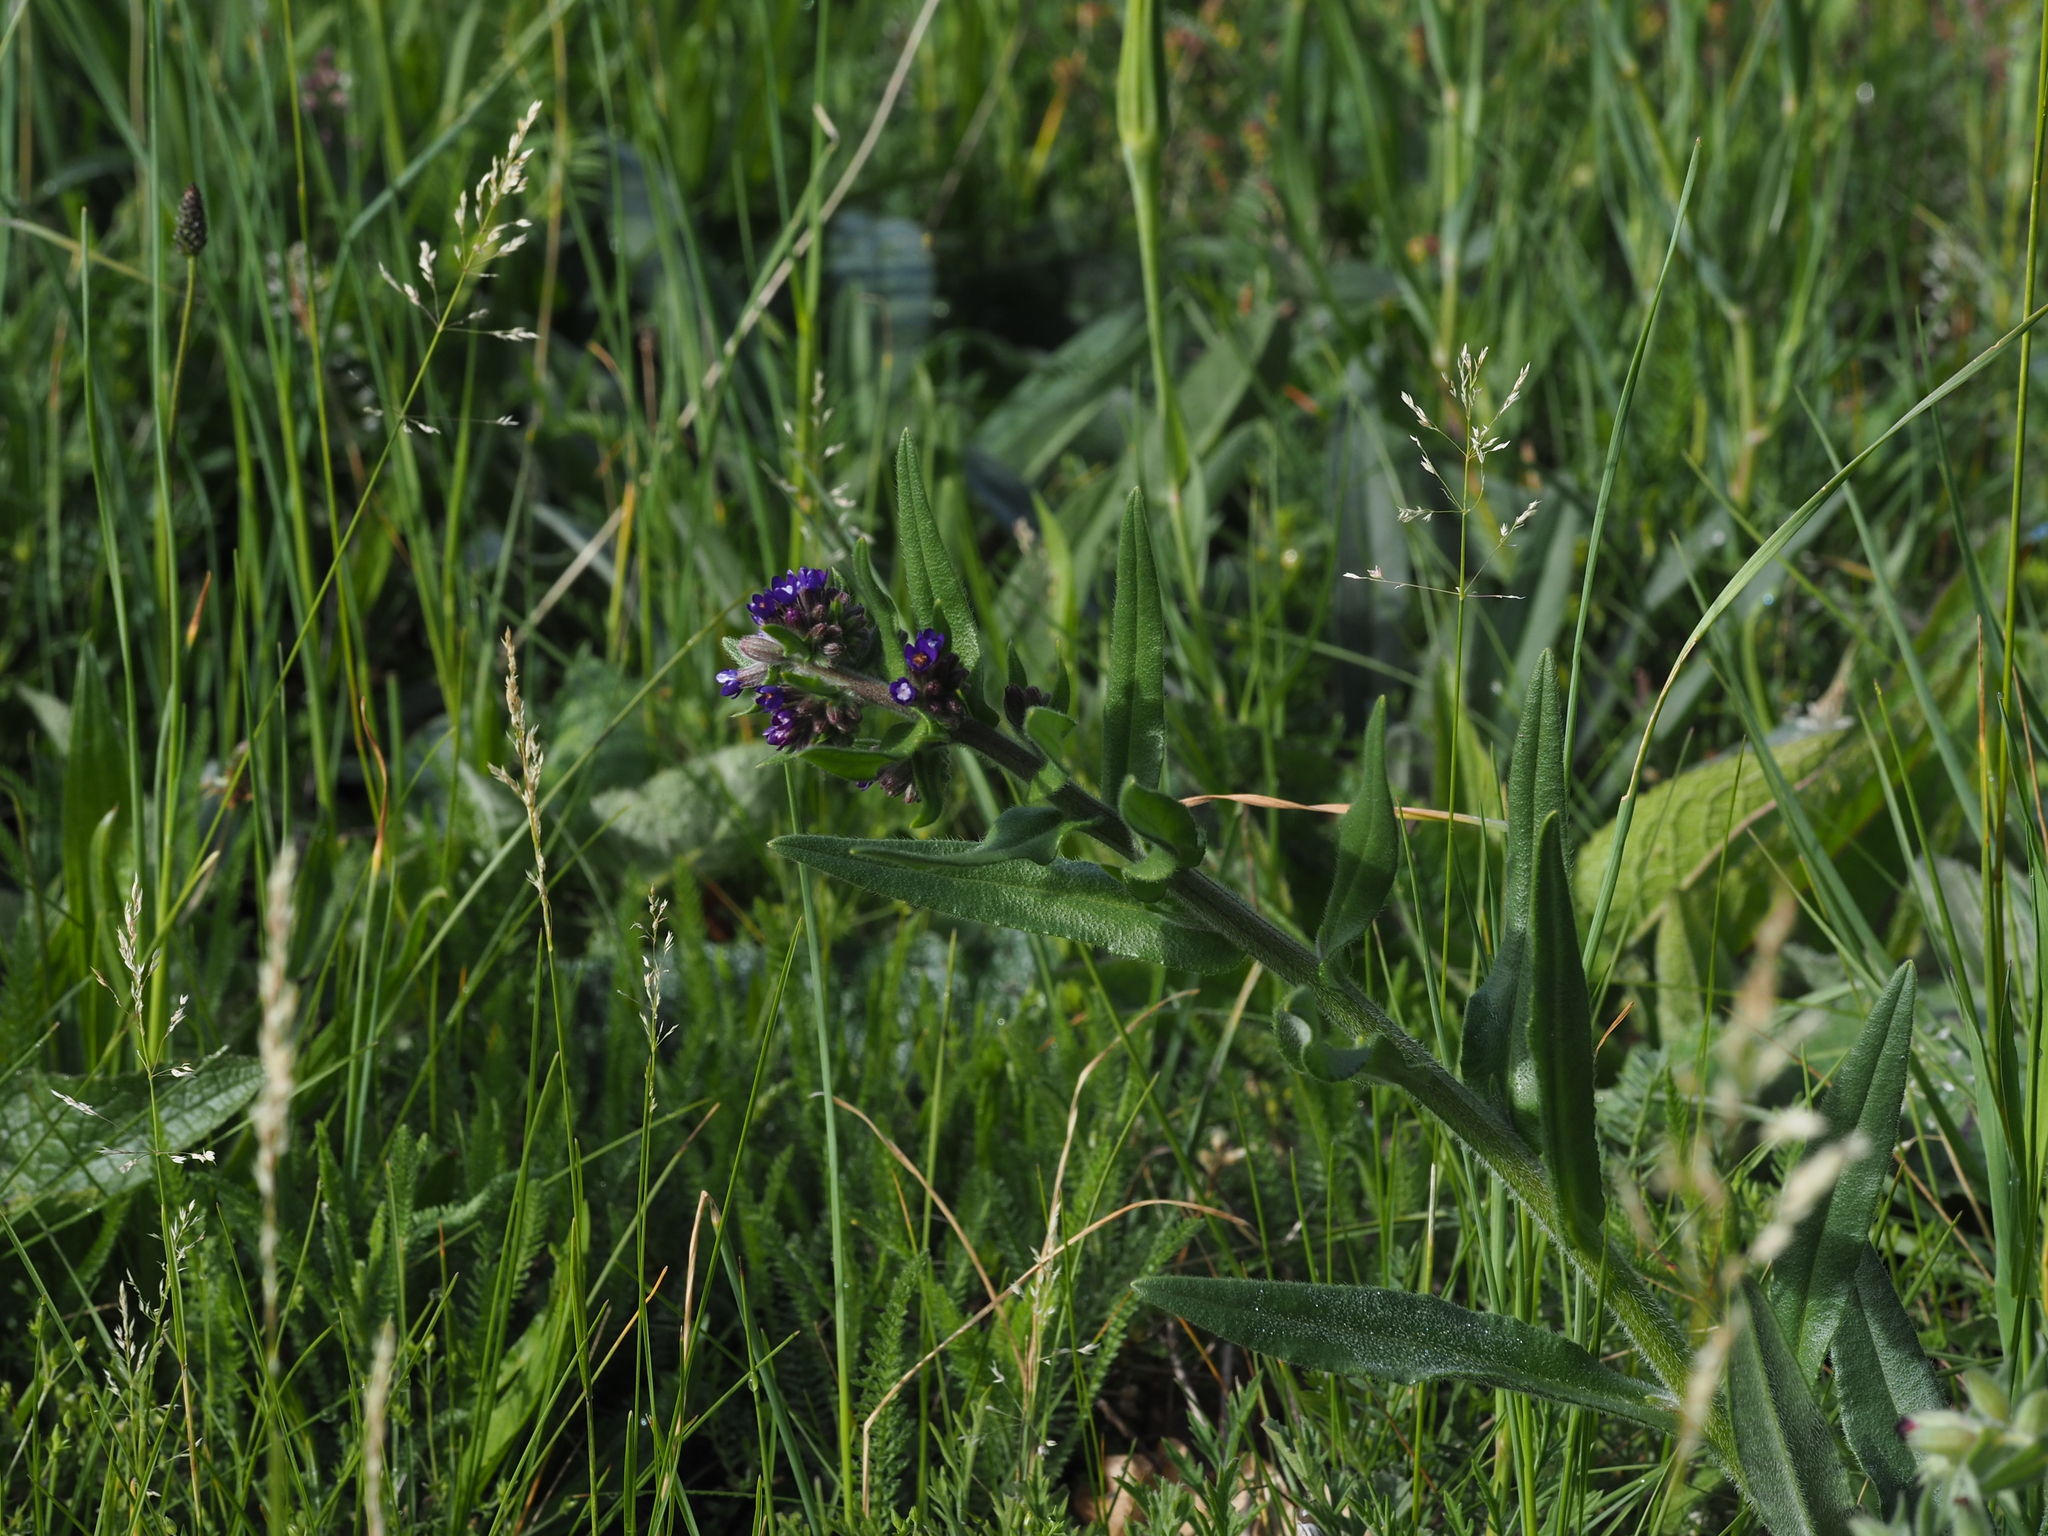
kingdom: Plantae
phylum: Tracheophyta
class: Magnoliopsida
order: Boraginales
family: Boraginaceae
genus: Cynoglossum
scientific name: Cynoglossum officinale
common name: Hound's-tongue
